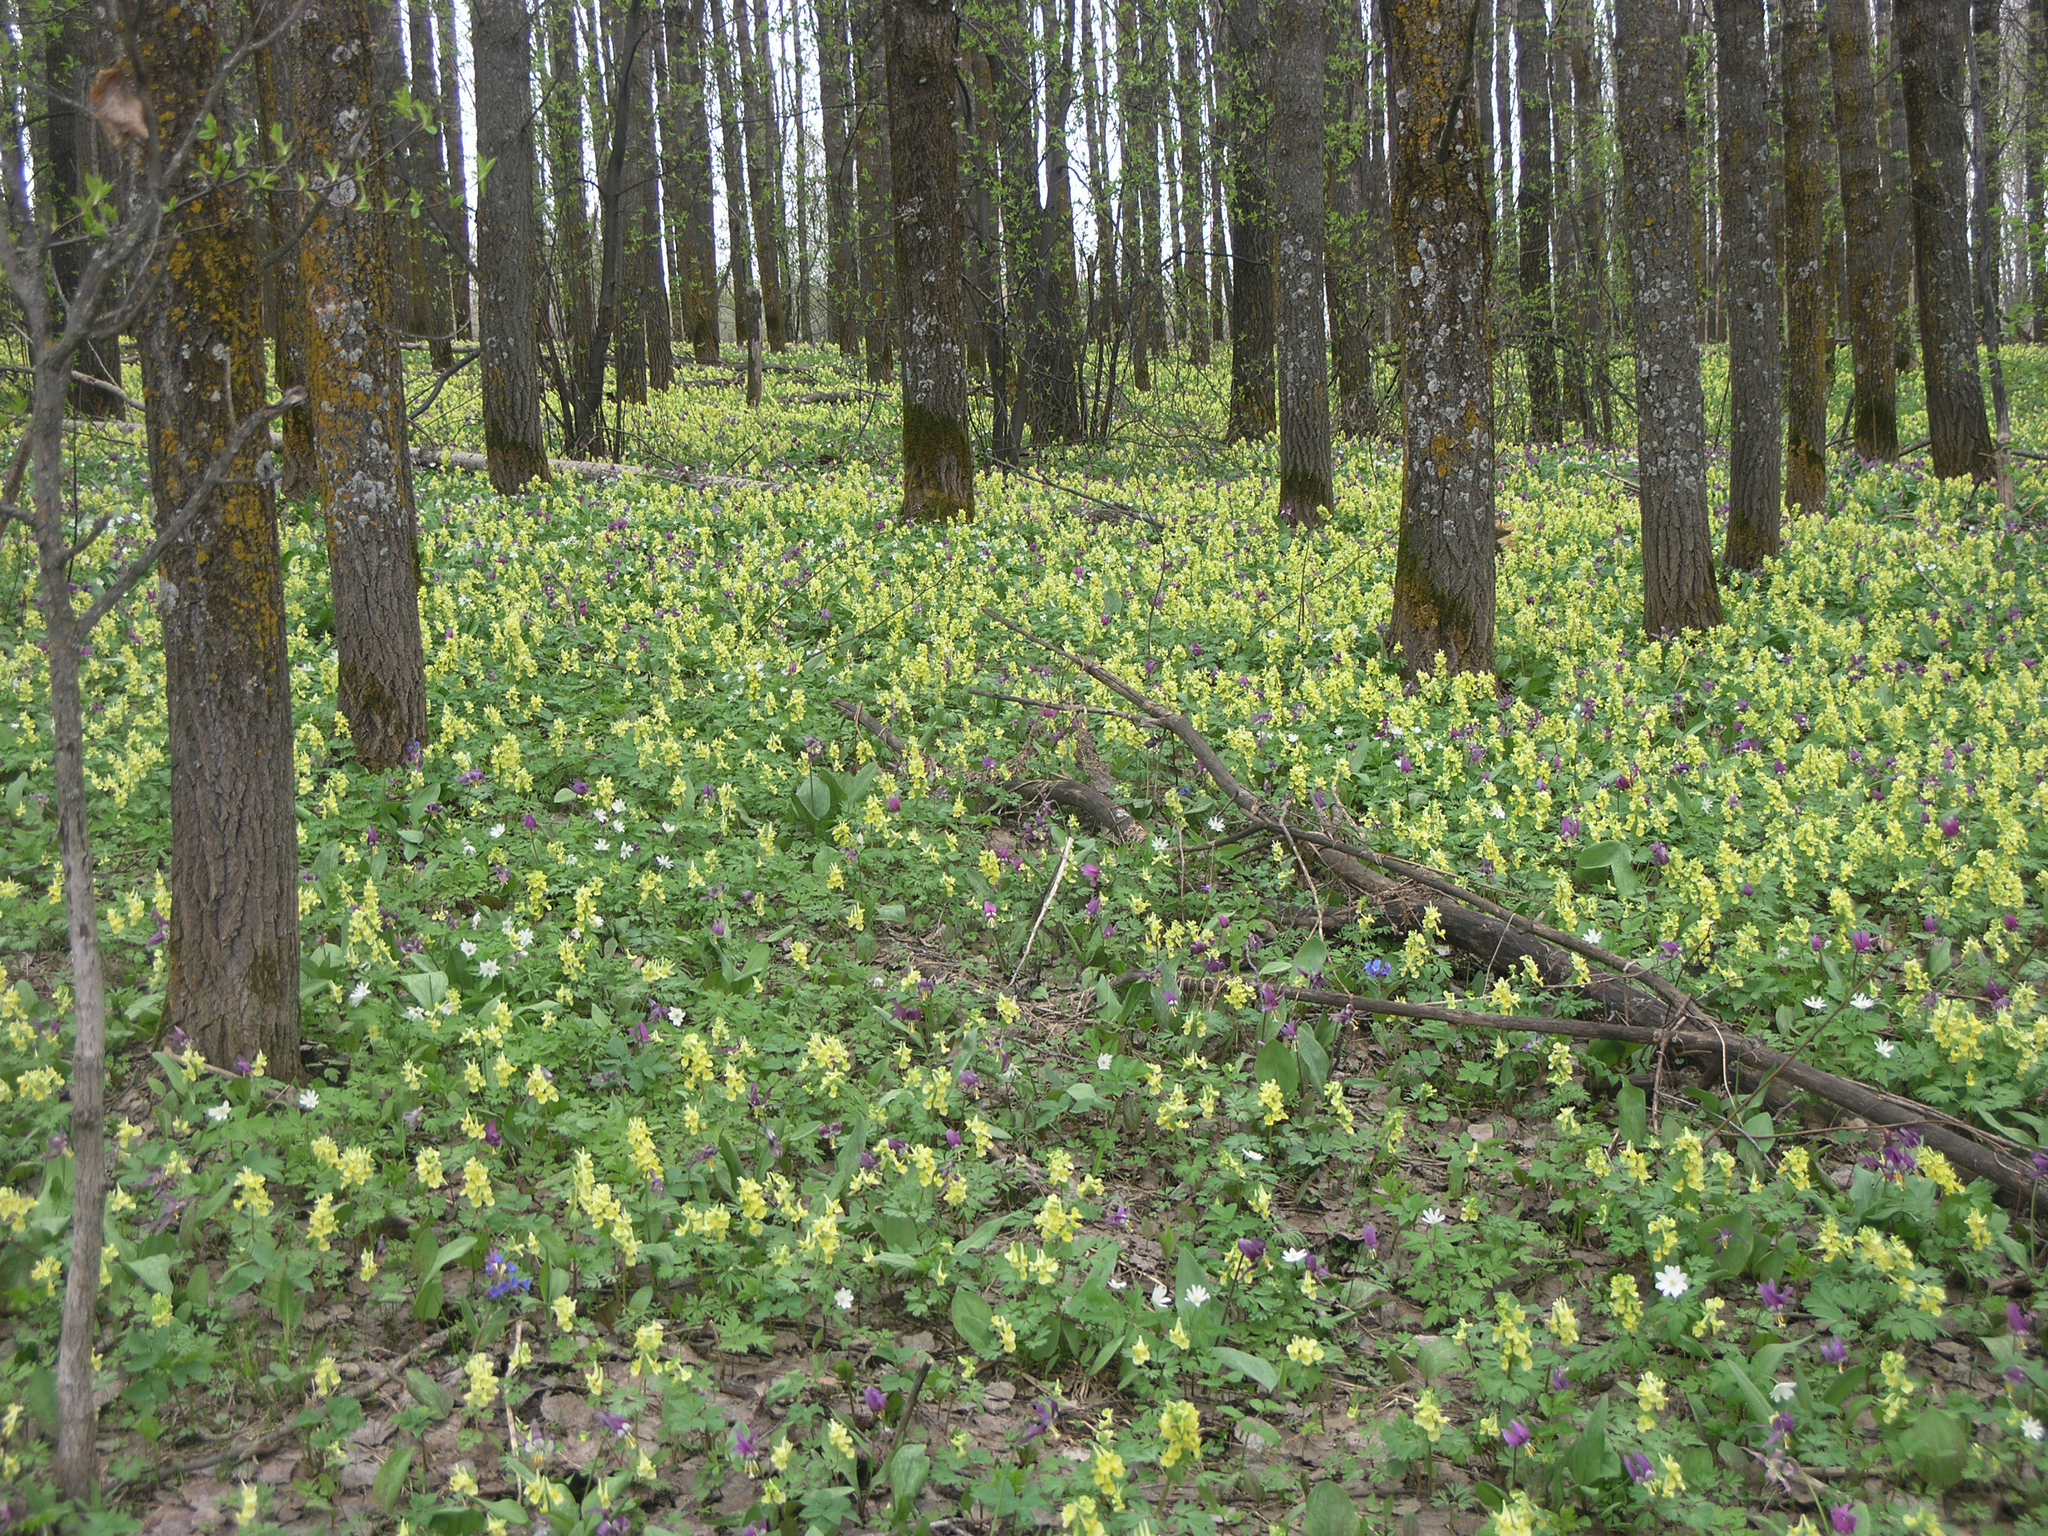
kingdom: Plantae
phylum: Tracheophyta
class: Magnoliopsida
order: Ranunculales
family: Papaveraceae
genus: Corydalis
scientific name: Corydalis bracteata
